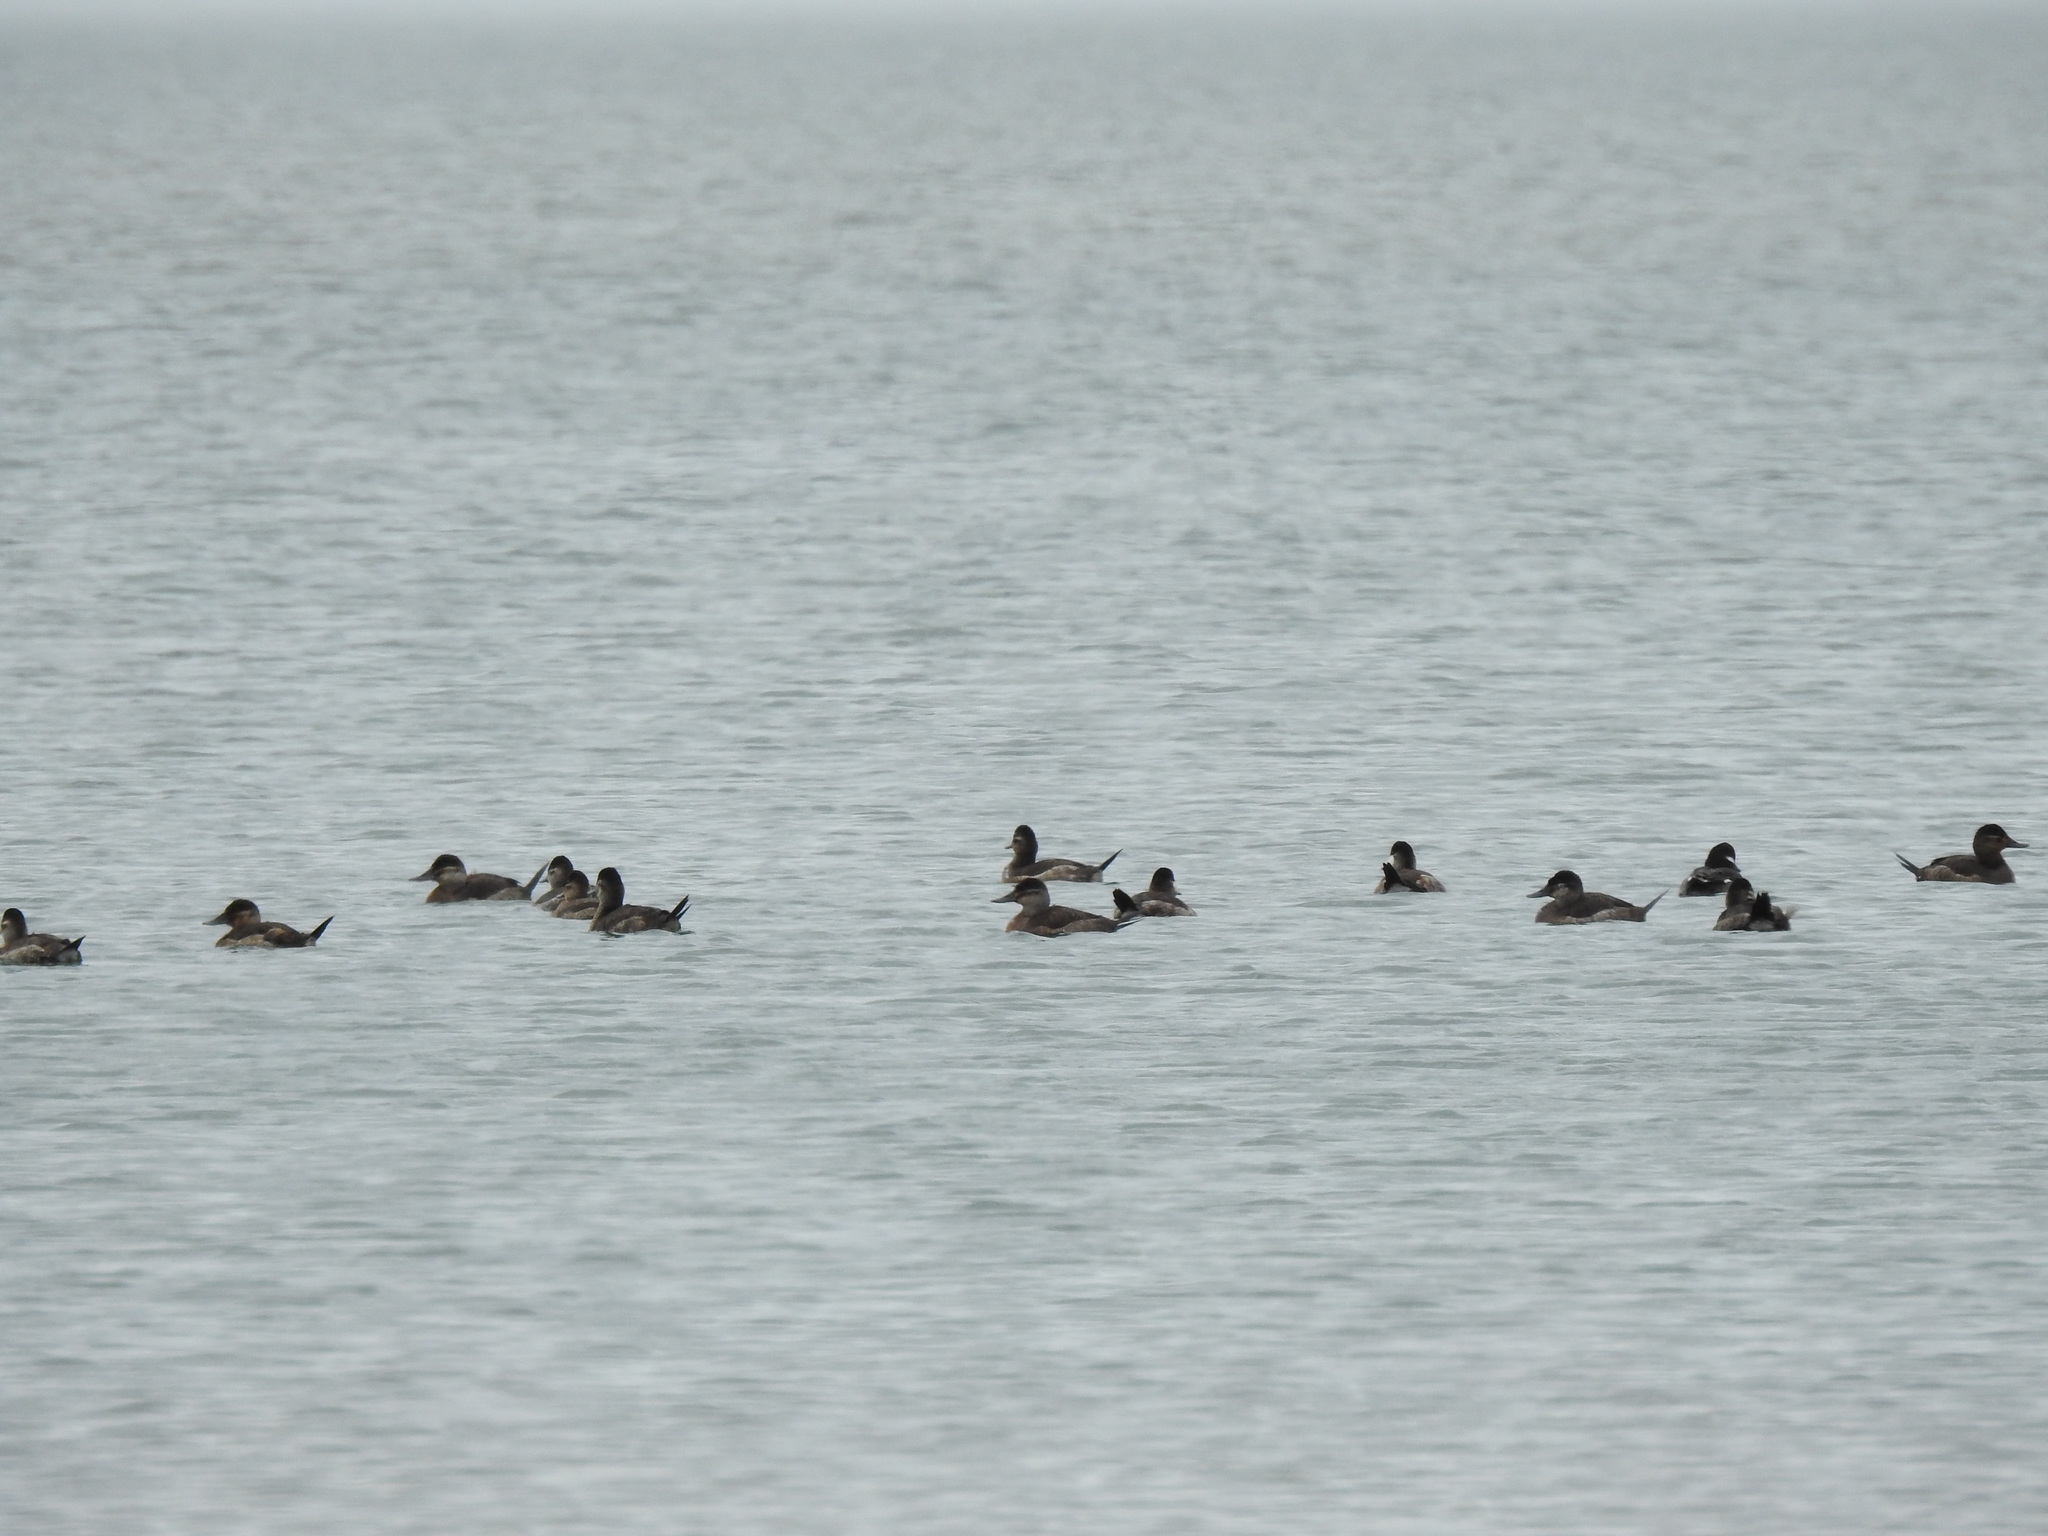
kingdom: Animalia
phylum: Chordata
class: Aves
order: Anseriformes
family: Anatidae
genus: Oxyura
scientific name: Oxyura jamaicensis
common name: Ruddy duck
